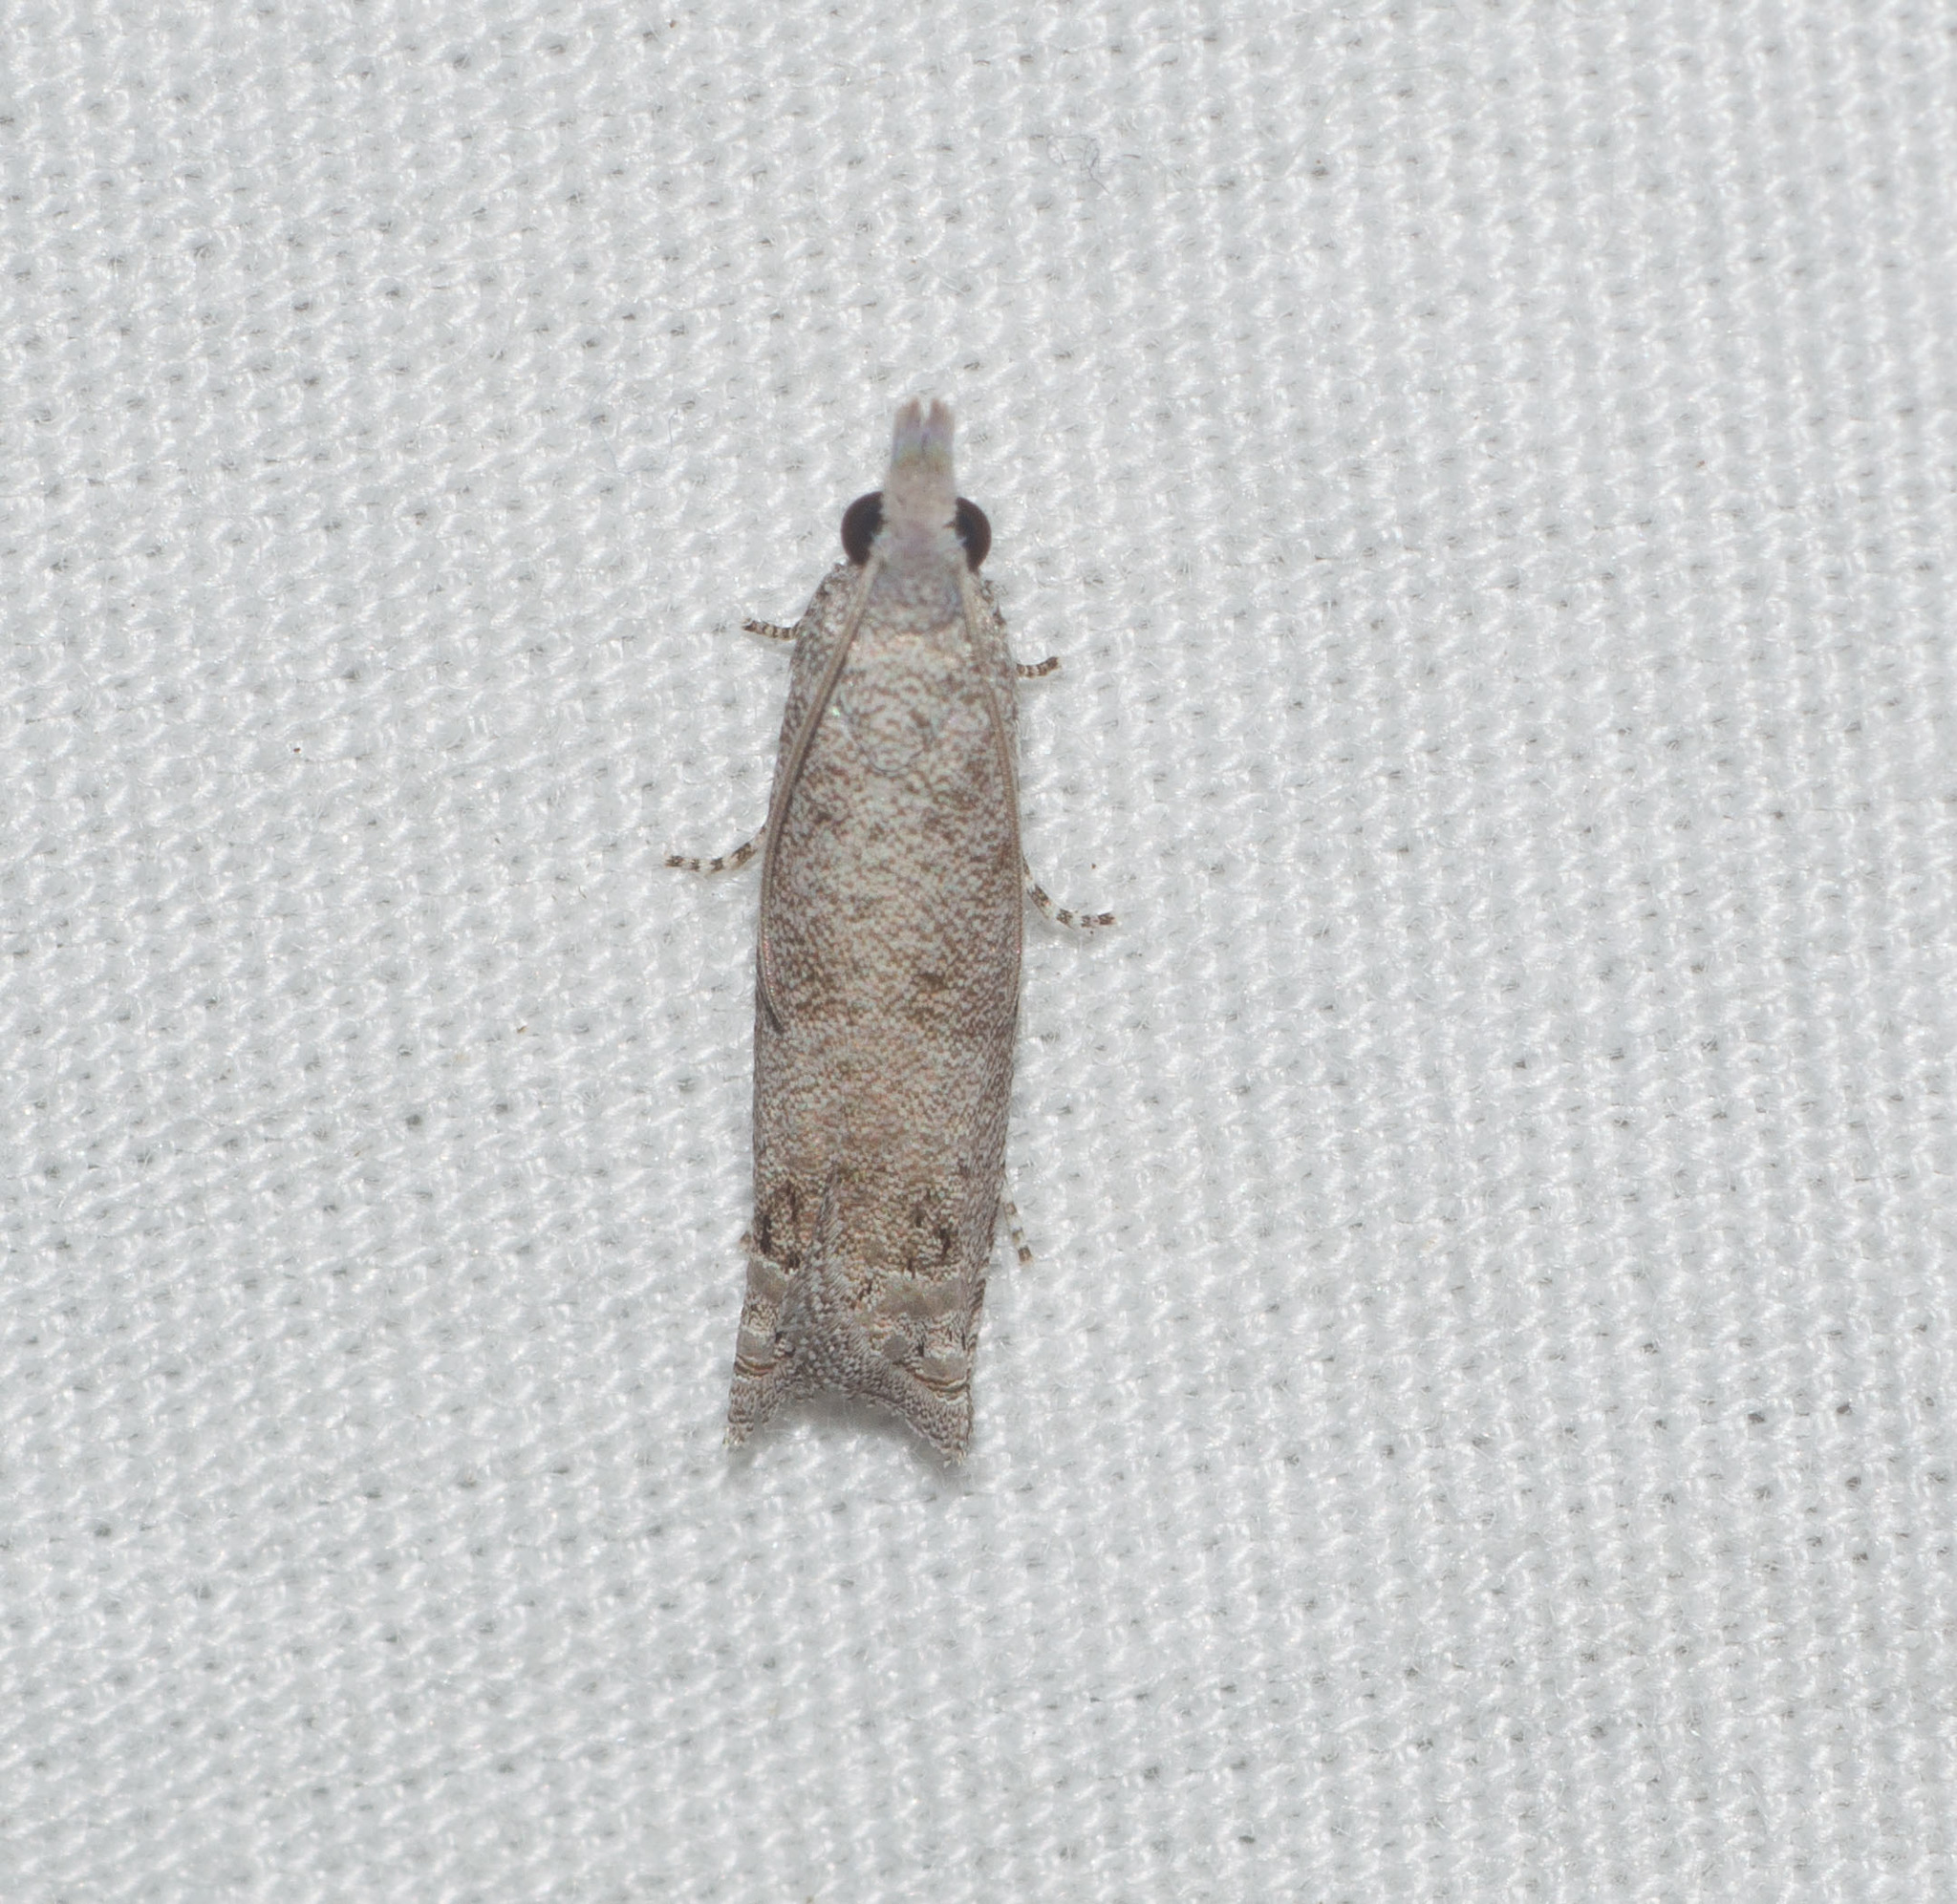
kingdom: Animalia
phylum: Arthropoda
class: Insecta
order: Lepidoptera
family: Tortricidae
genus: Eccoptocera
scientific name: Eccoptocera
